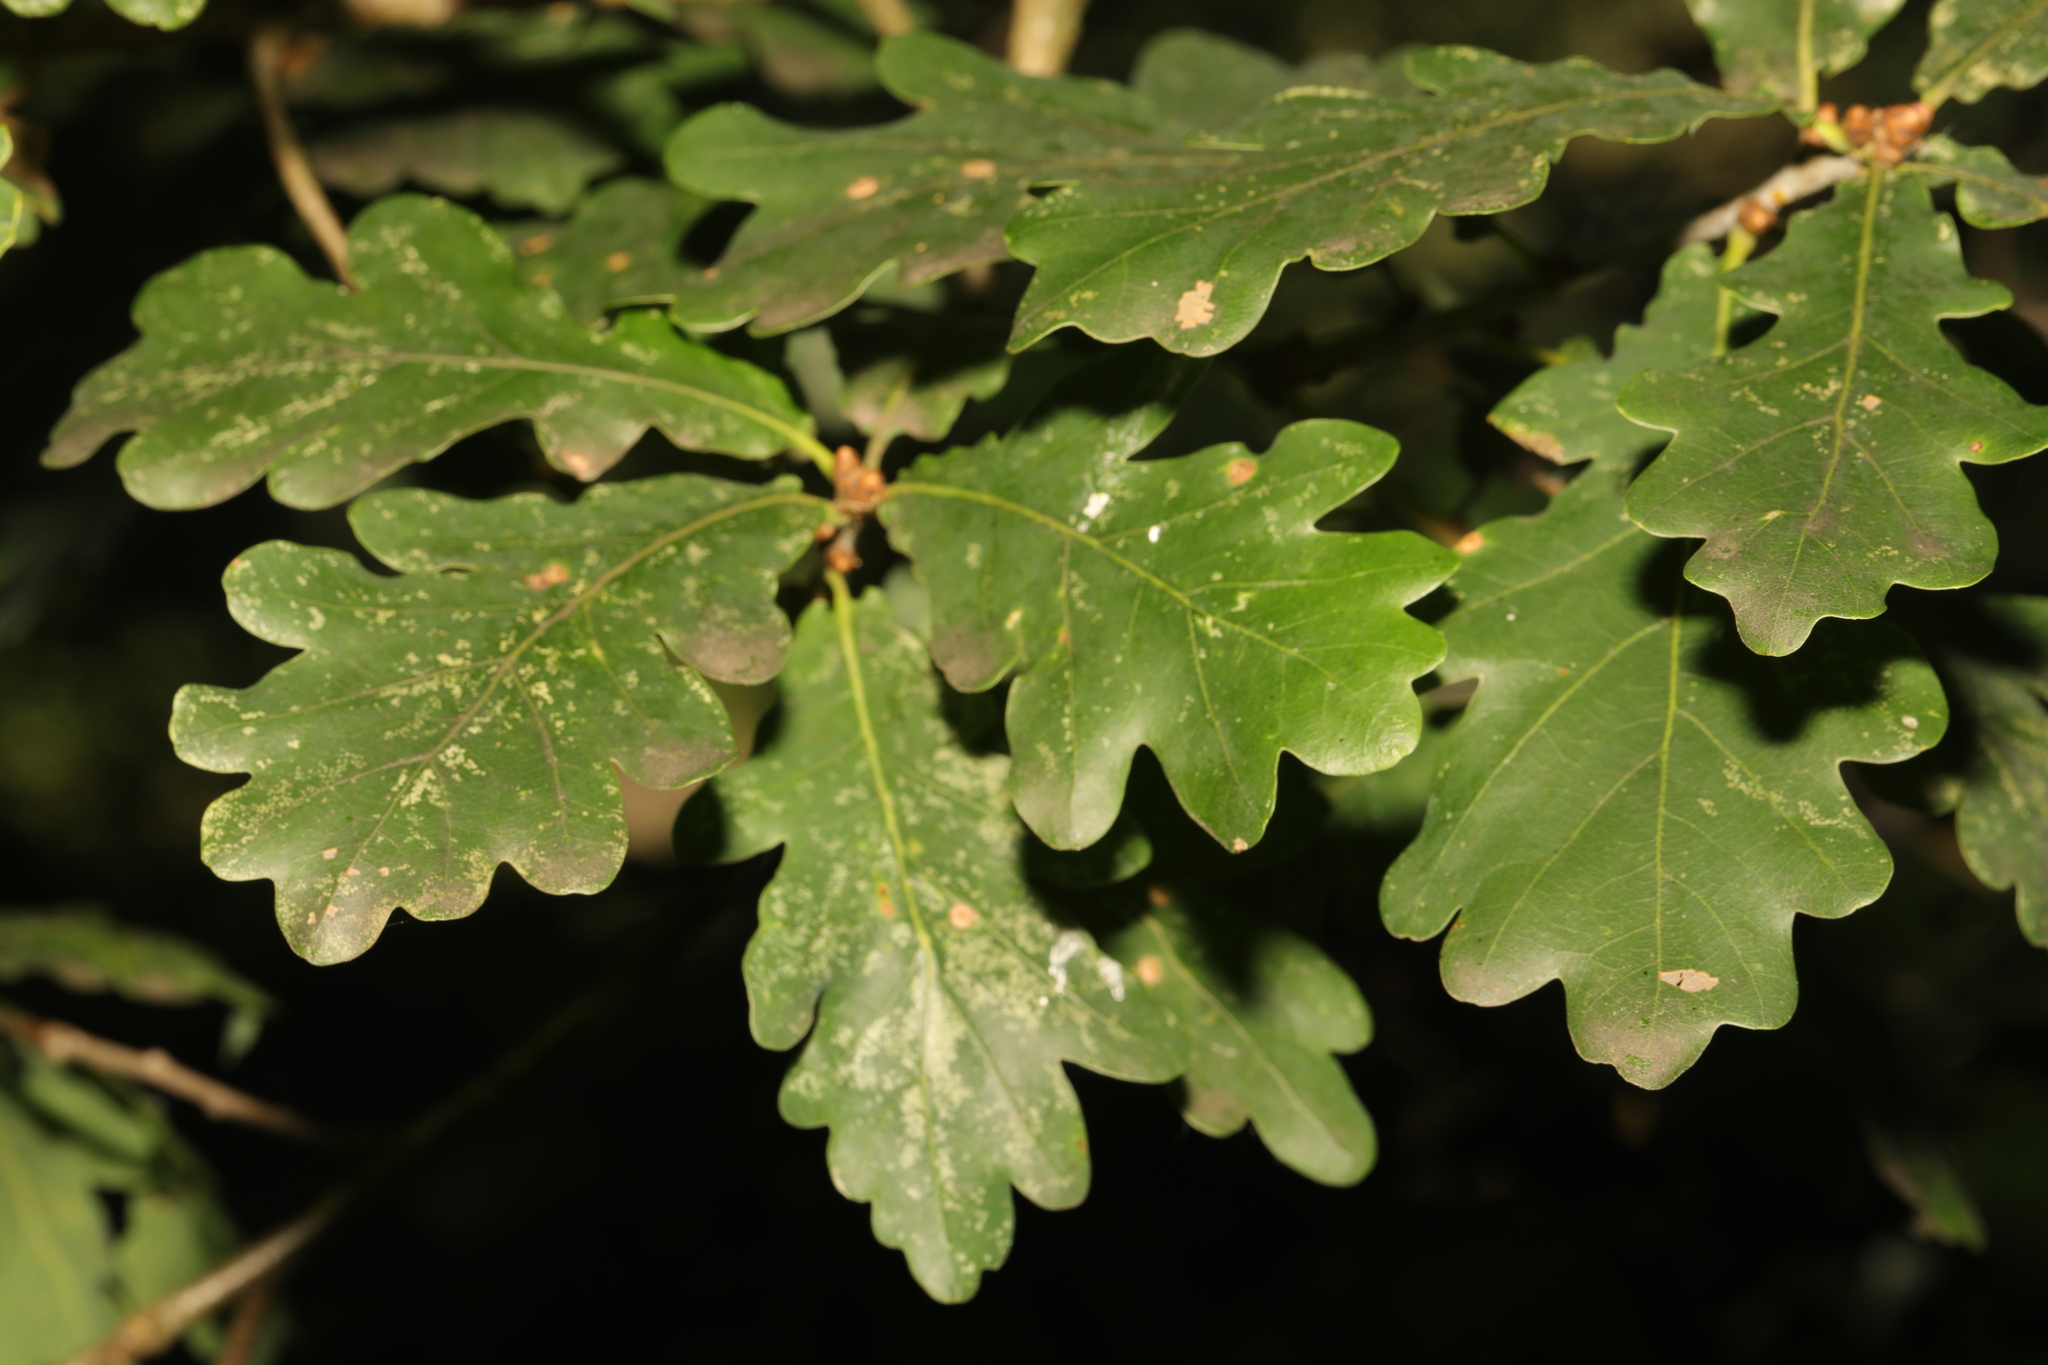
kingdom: Plantae
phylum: Tracheophyta
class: Magnoliopsida
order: Fagales
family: Fagaceae
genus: Quercus
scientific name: Quercus robur
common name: Pedunculate oak
